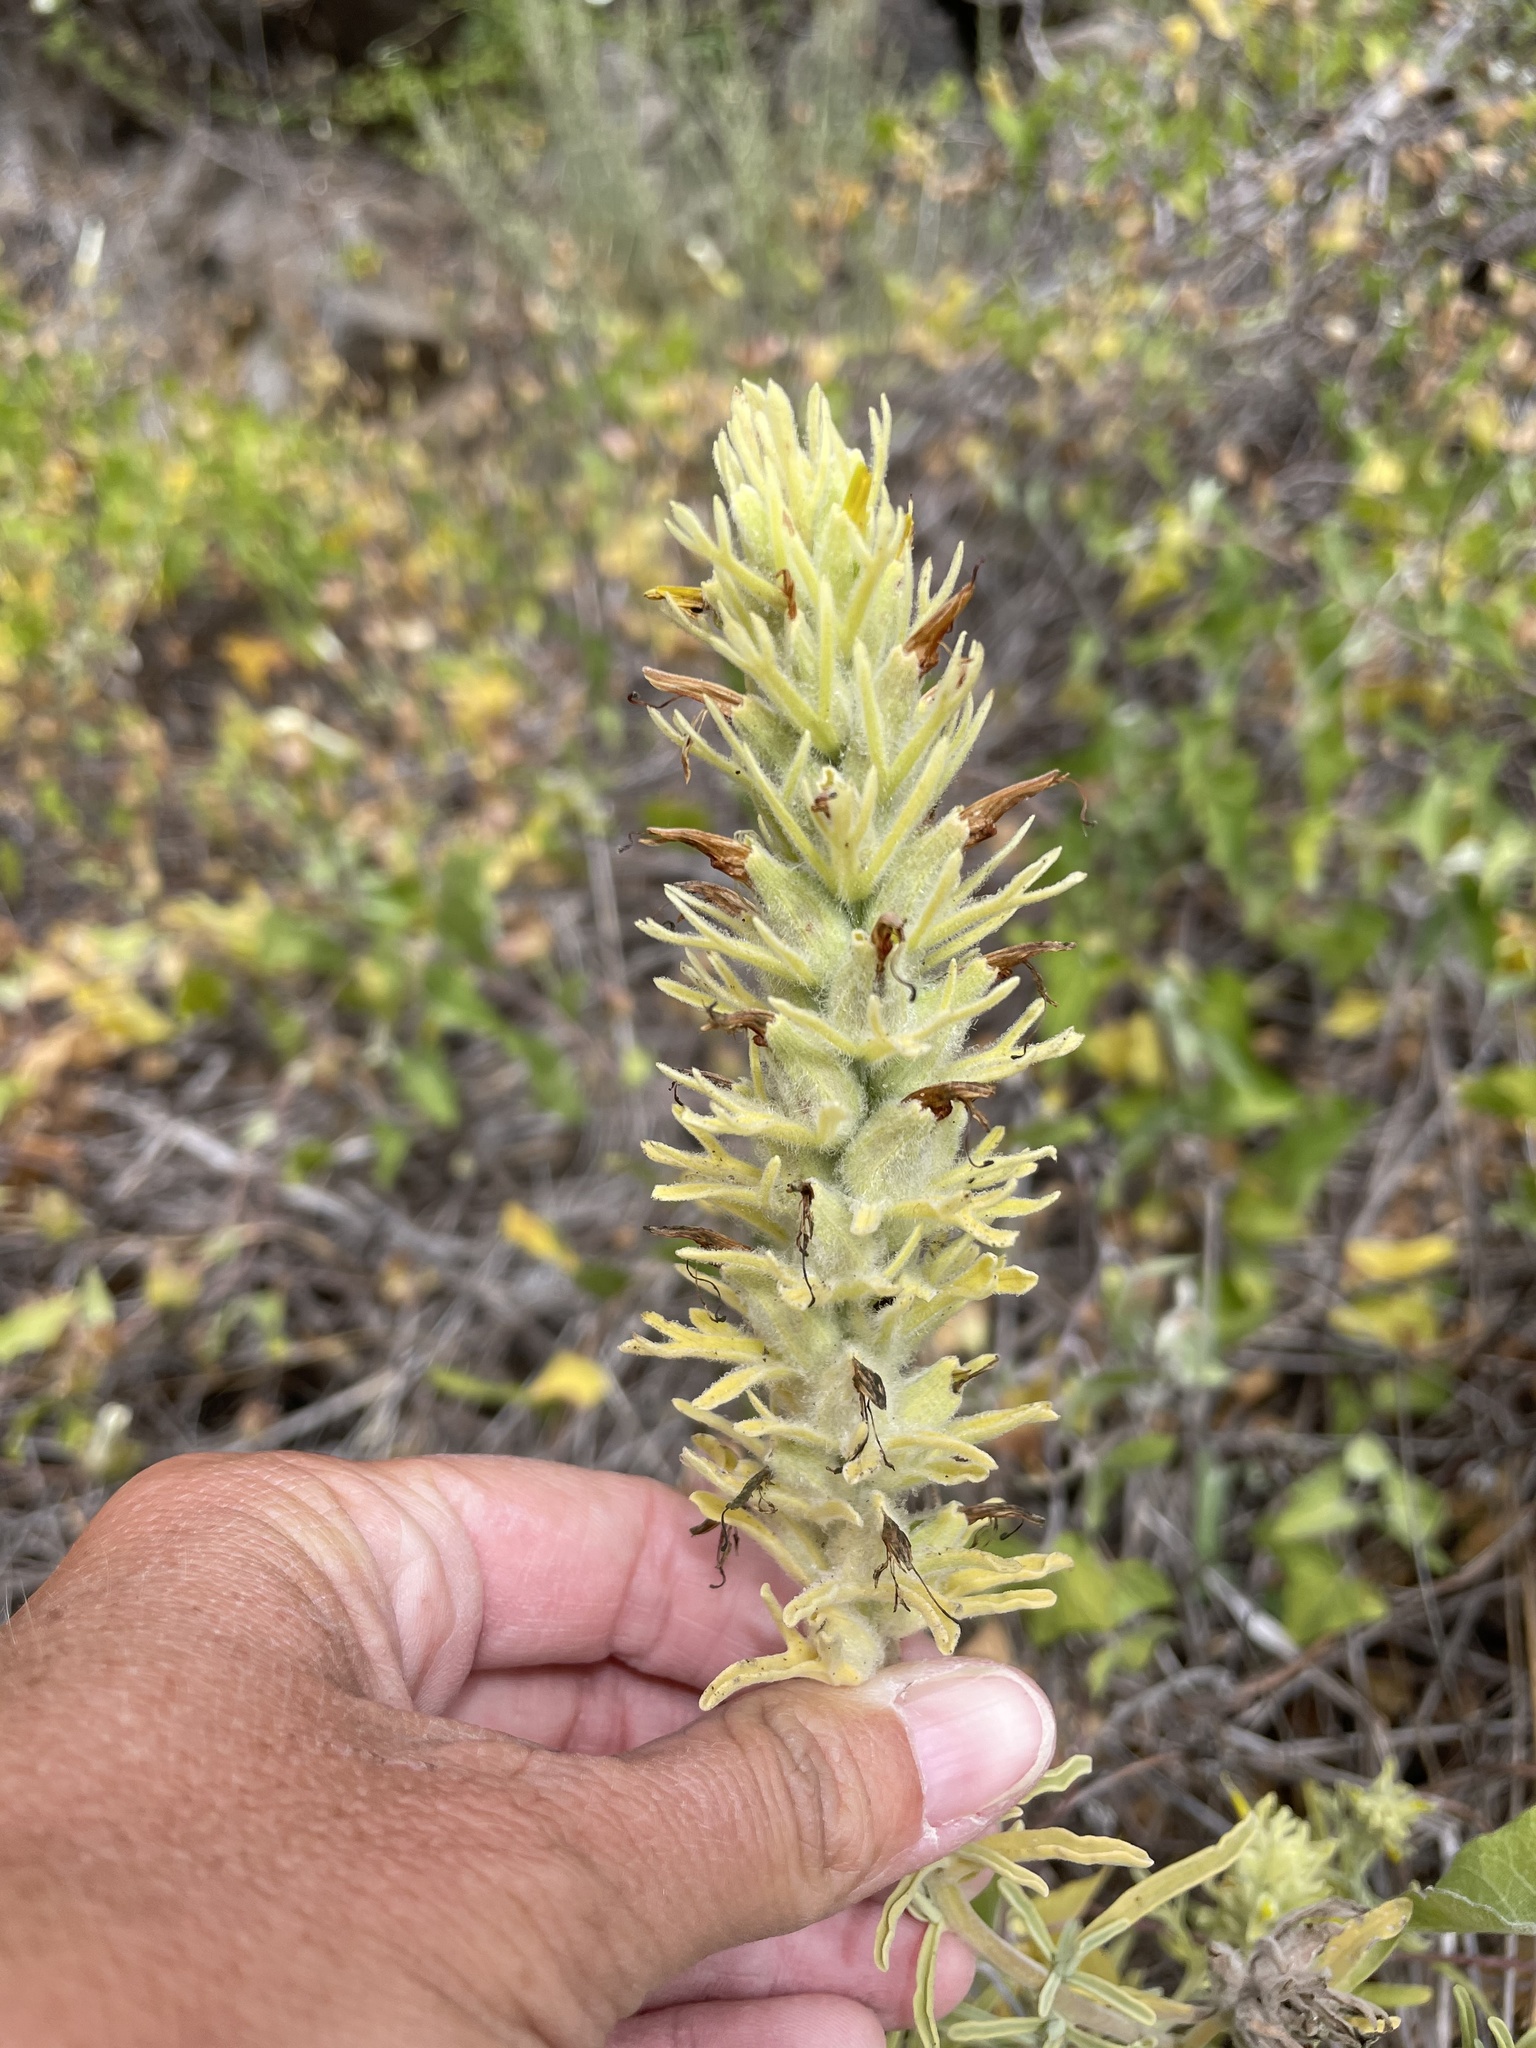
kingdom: Plantae
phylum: Tracheophyta
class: Magnoliopsida
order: Lamiales
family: Orobanchaceae
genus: Castilleja
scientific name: Castilleja grisea
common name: San clemente island indian paintbrush
